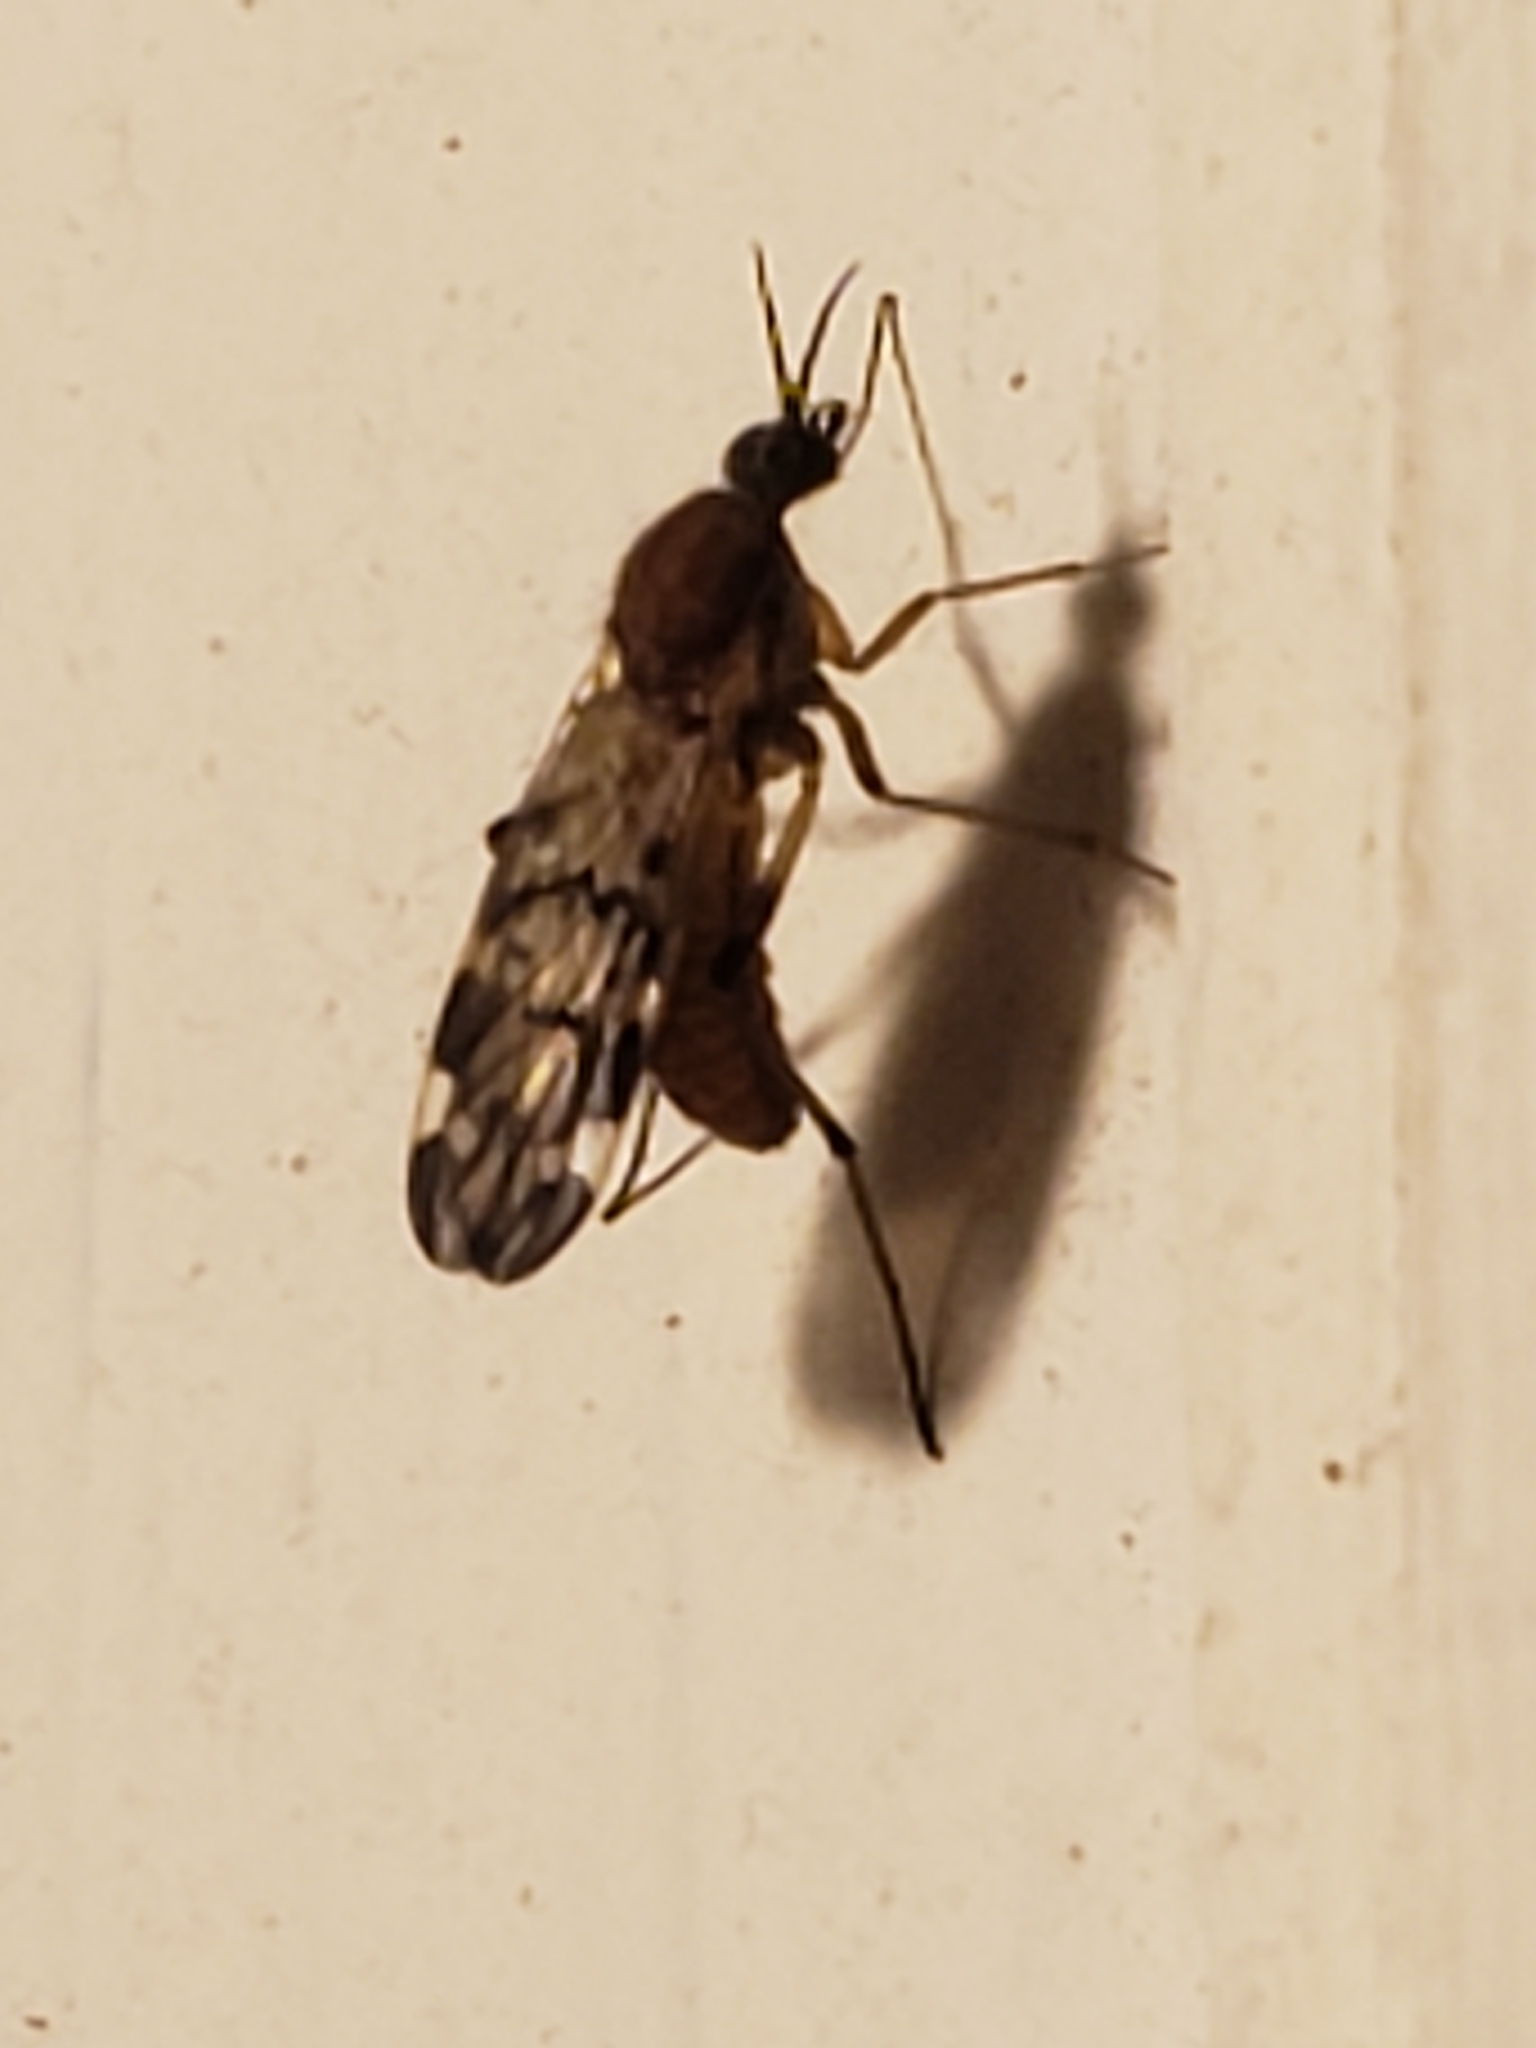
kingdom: Animalia
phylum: Arthropoda
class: Insecta
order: Diptera
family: Anisopodidae
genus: Sylvicola
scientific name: Sylvicola alternata
